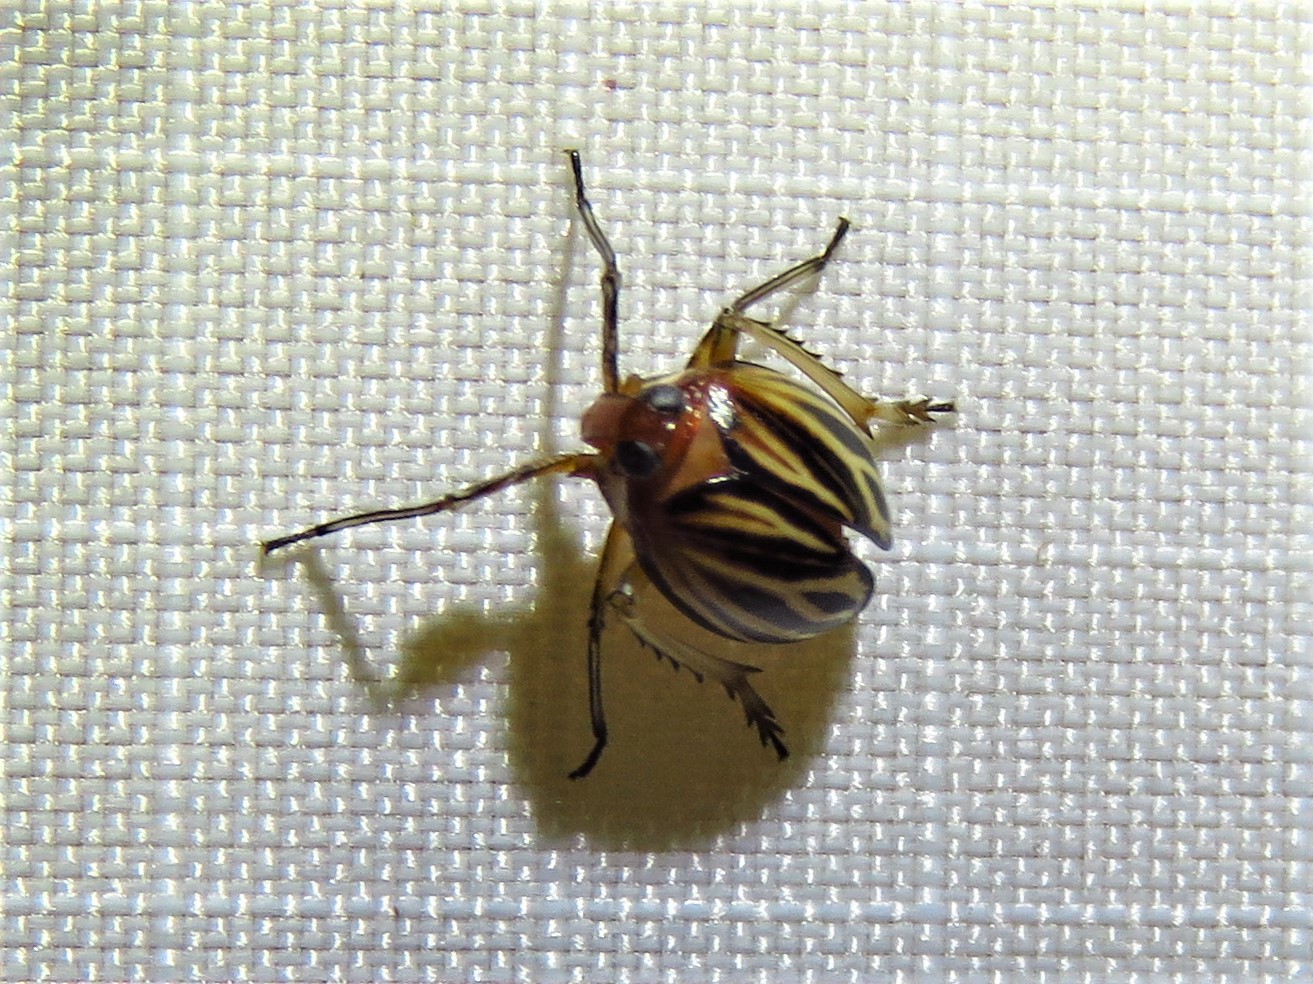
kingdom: Animalia
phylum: Arthropoda
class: Insecta
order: Hemiptera
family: Achilidae
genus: Isodaemon
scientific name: Isodaemon orontes
